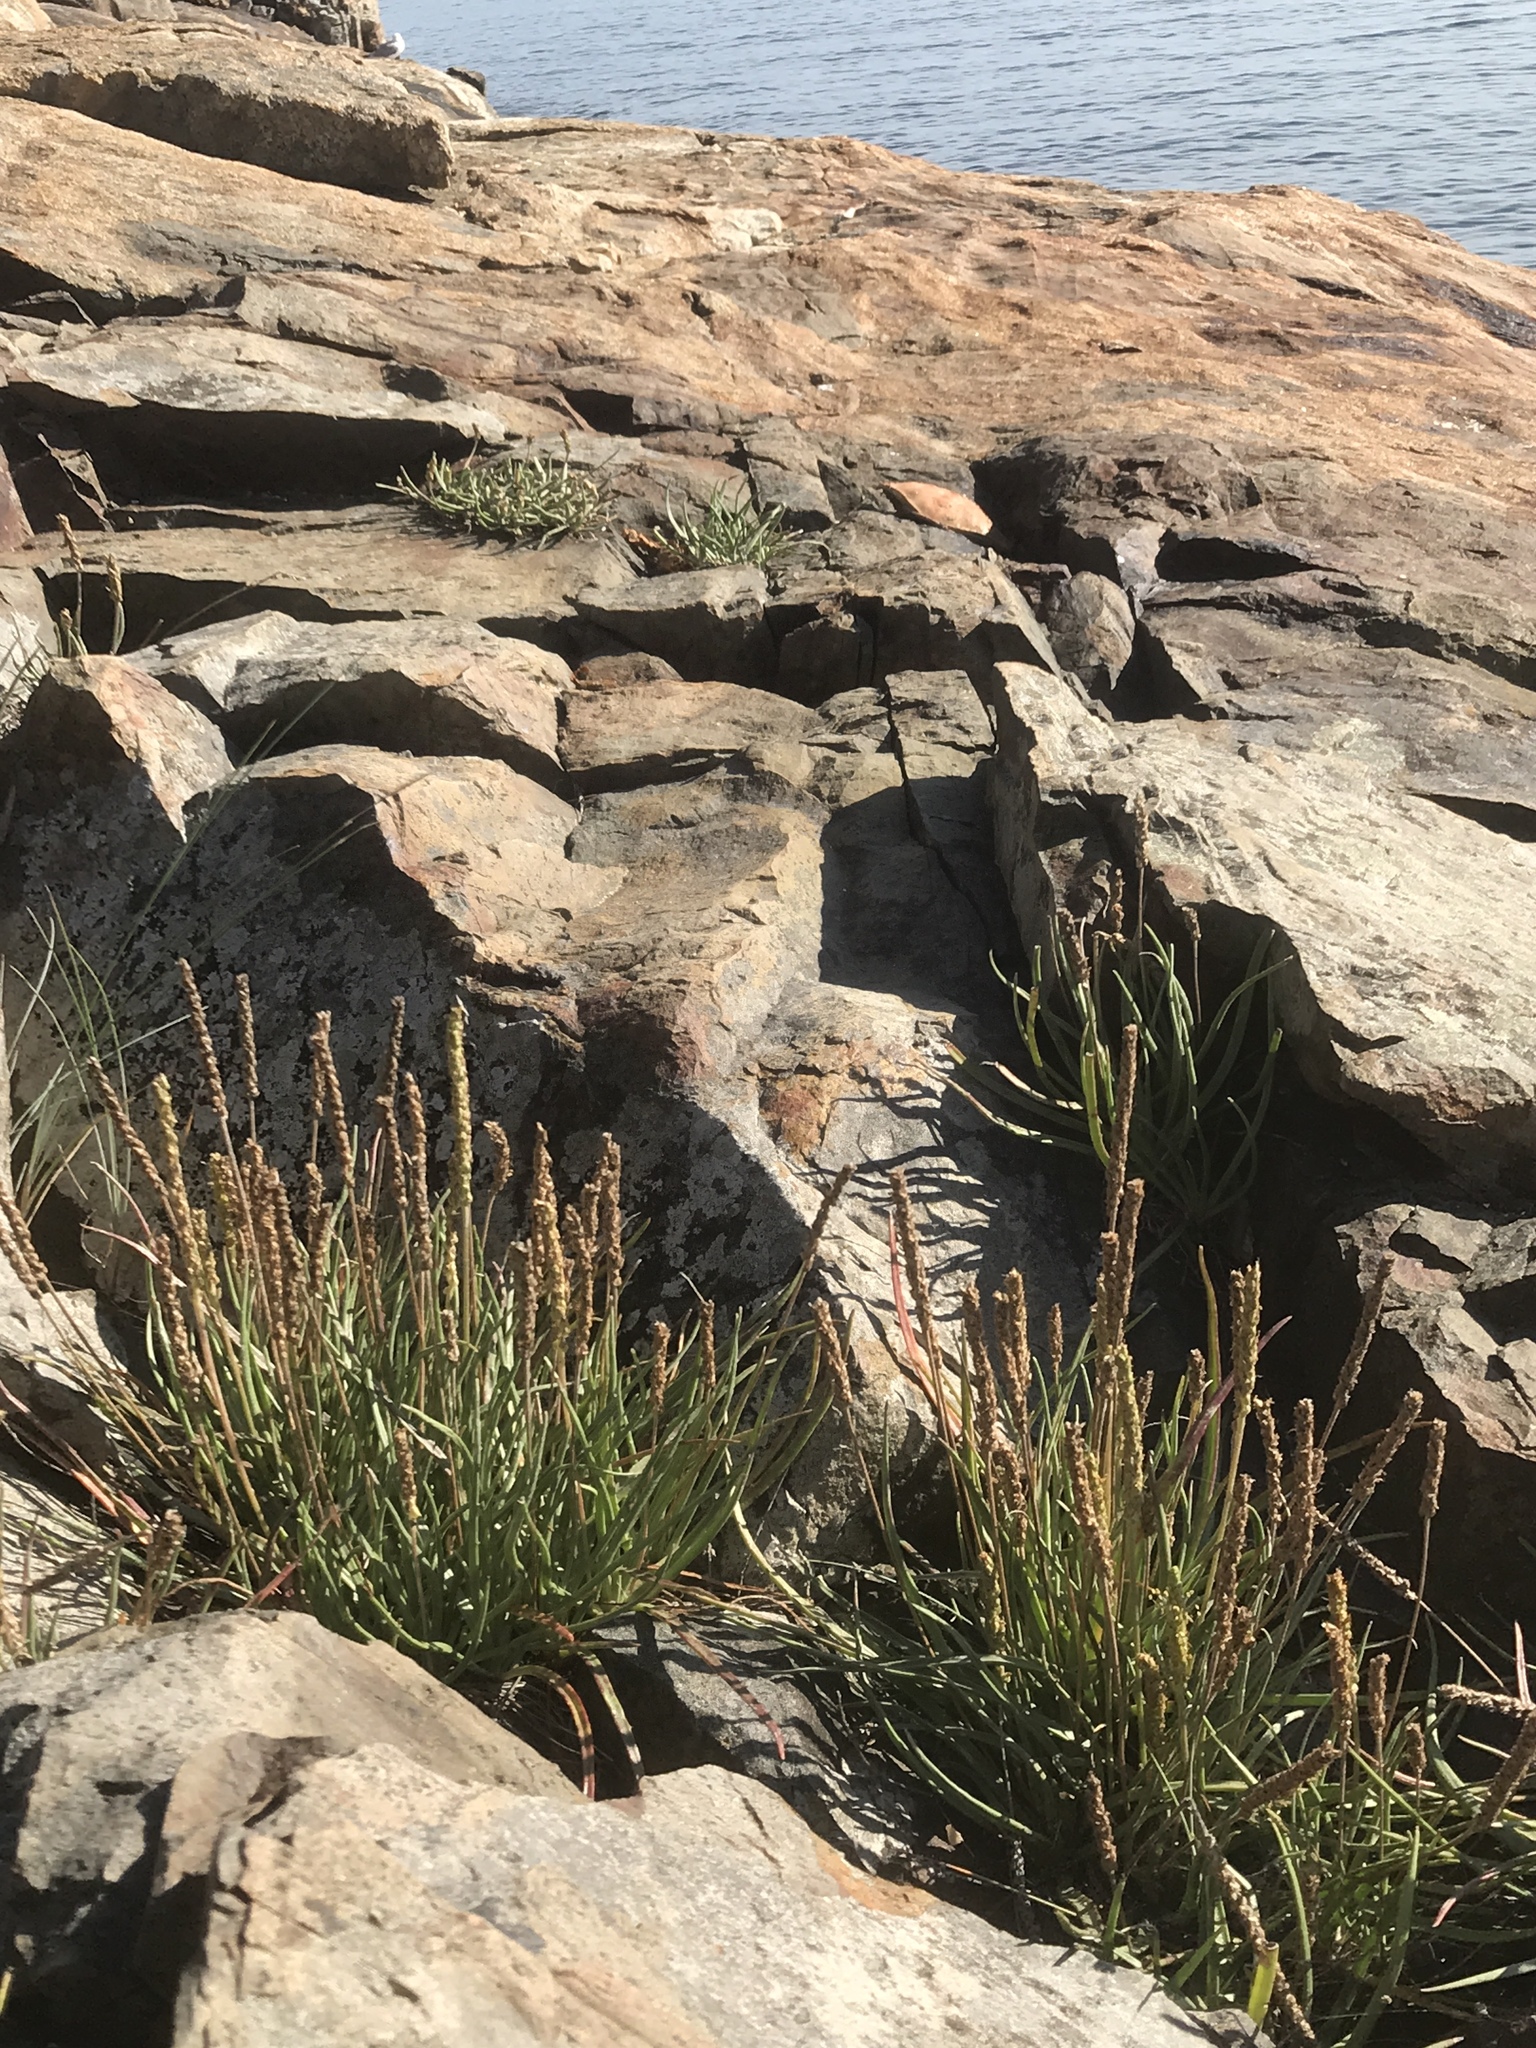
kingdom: Plantae
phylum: Tracheophyta
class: Magnoliopsida
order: Lamiales
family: Plantaginaceae
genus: Plantago
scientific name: Plantago maritima
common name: Sea plantain
